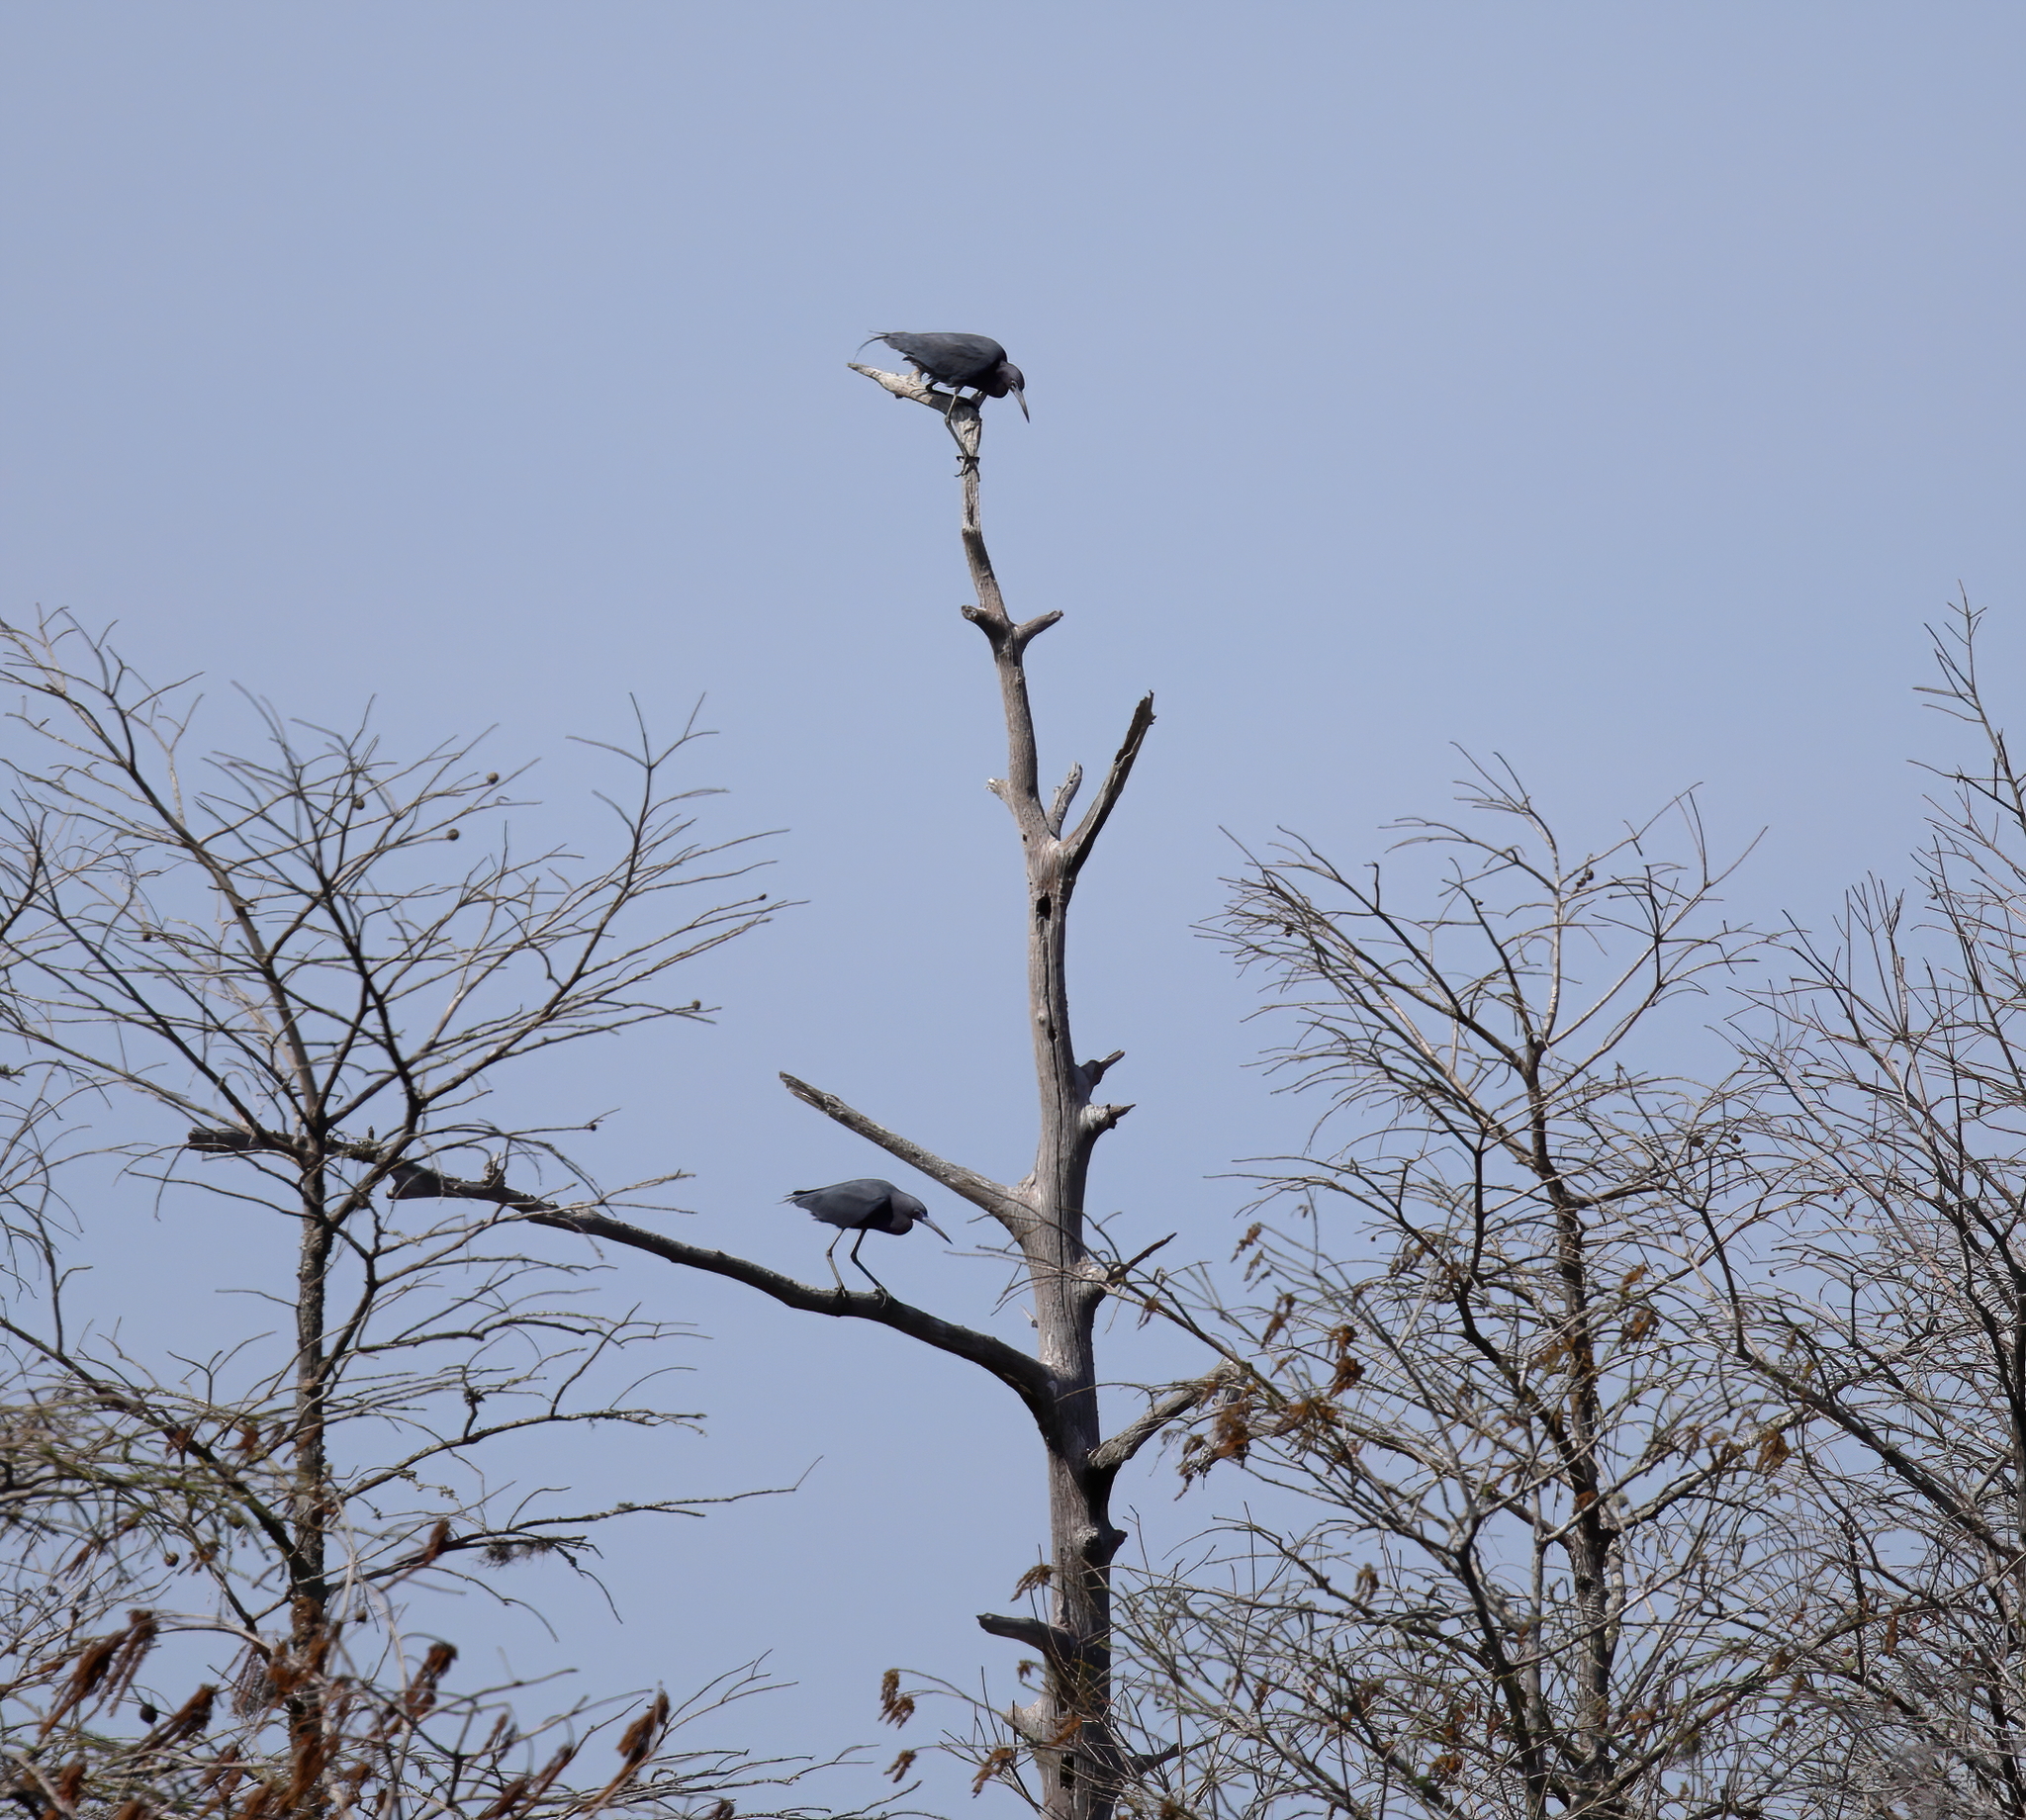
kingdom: Animalia
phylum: Chordata
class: Aves
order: Pelecaniformes
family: Ardeidae
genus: Egretta
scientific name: Egretta caerulea
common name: Little blue heron
